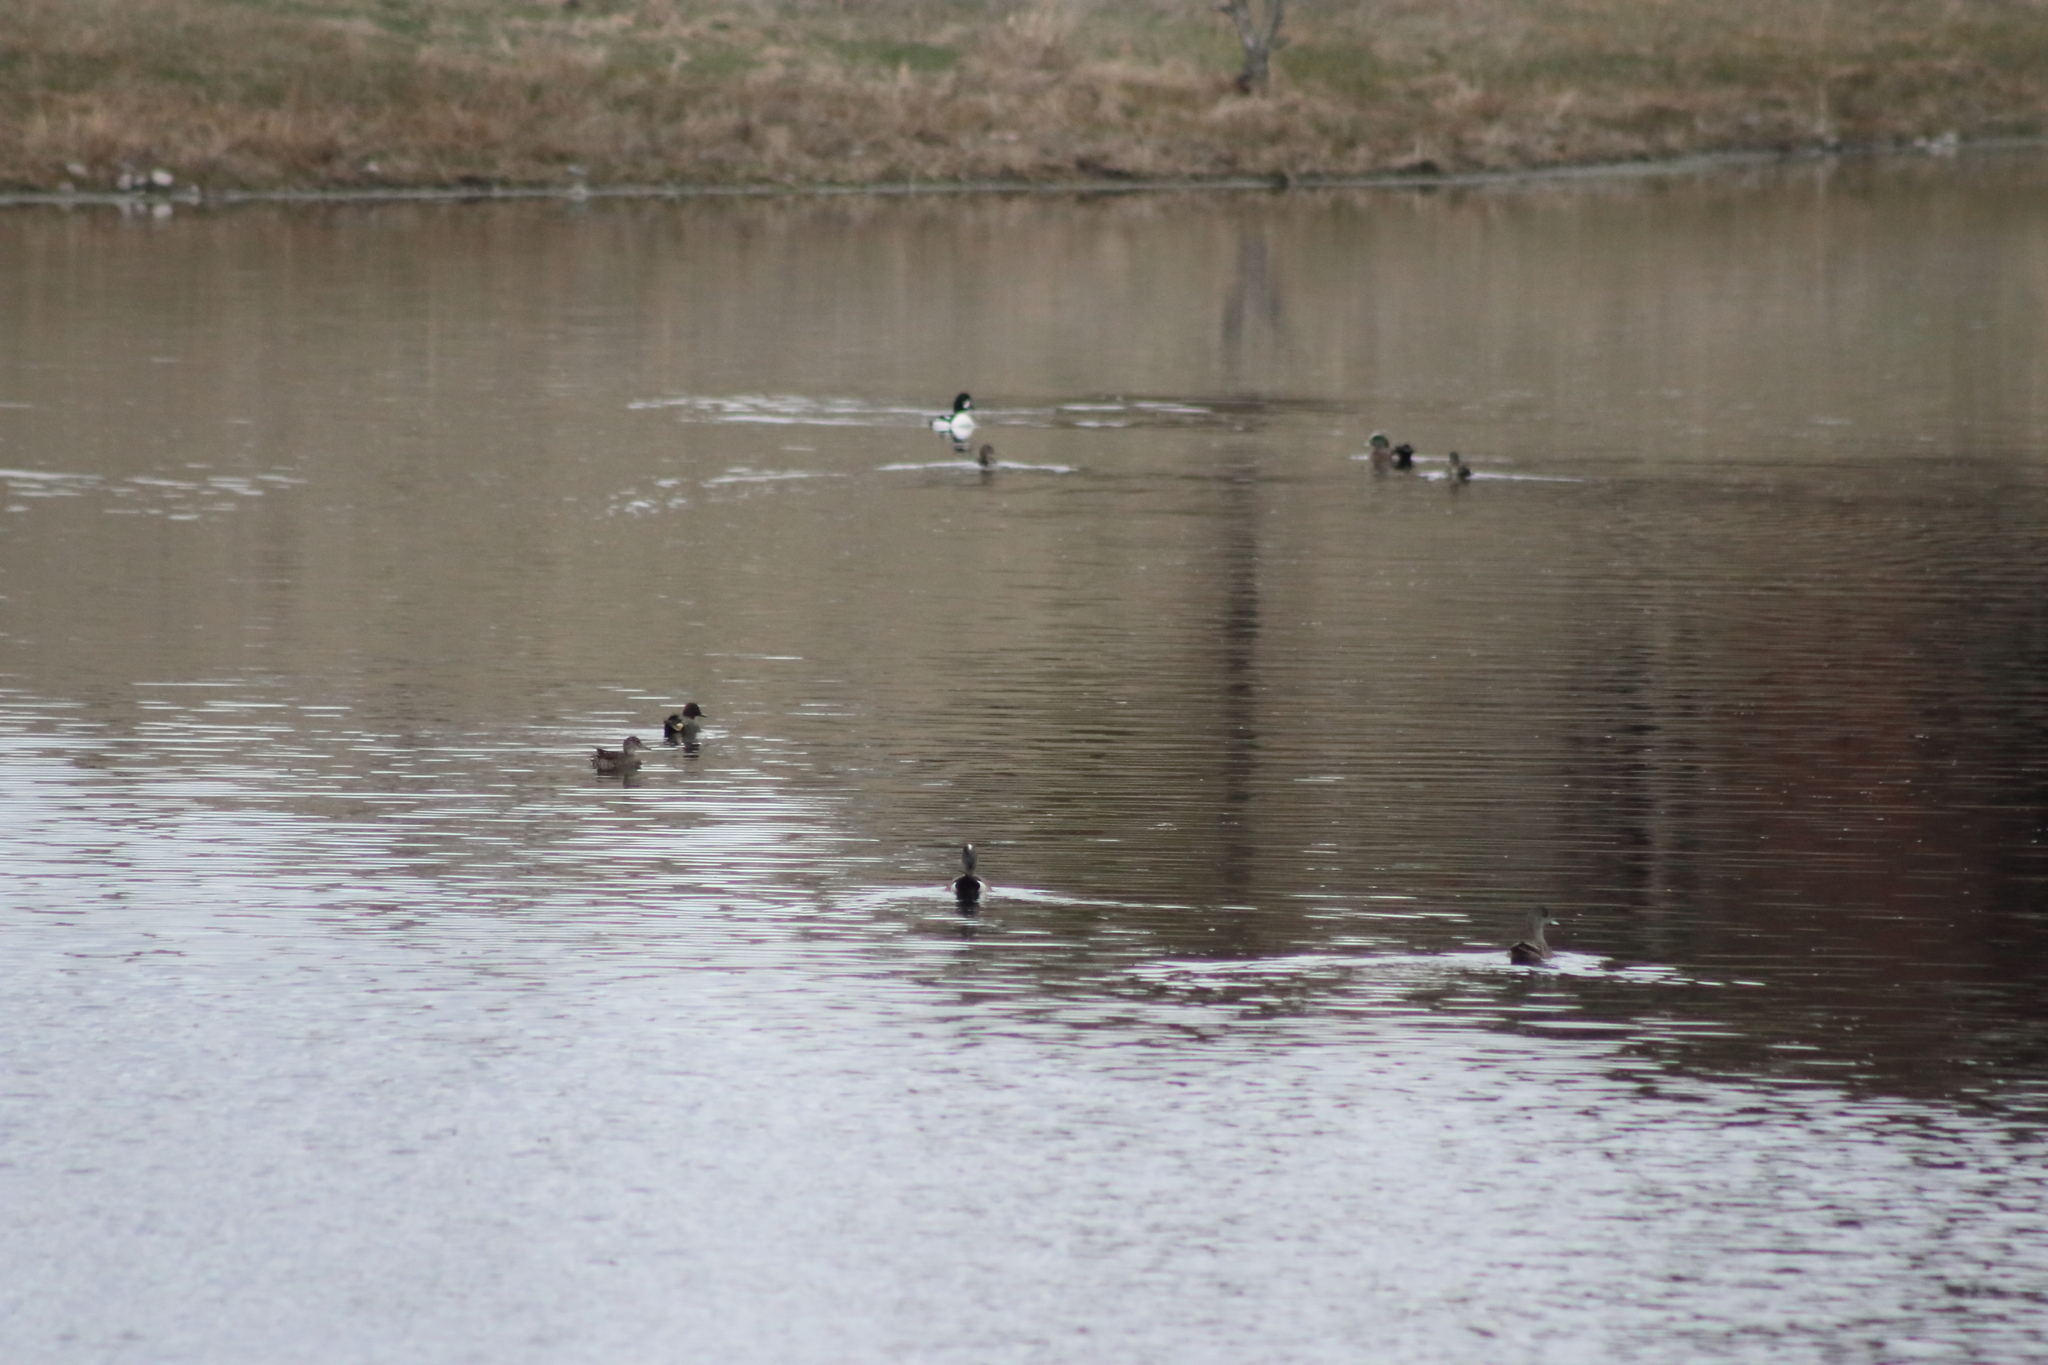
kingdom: Animalia
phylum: Chordata
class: Aves
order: Anseriformes
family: Anatidae
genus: Anas
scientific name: Anas crecca
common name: Eurasian teal
